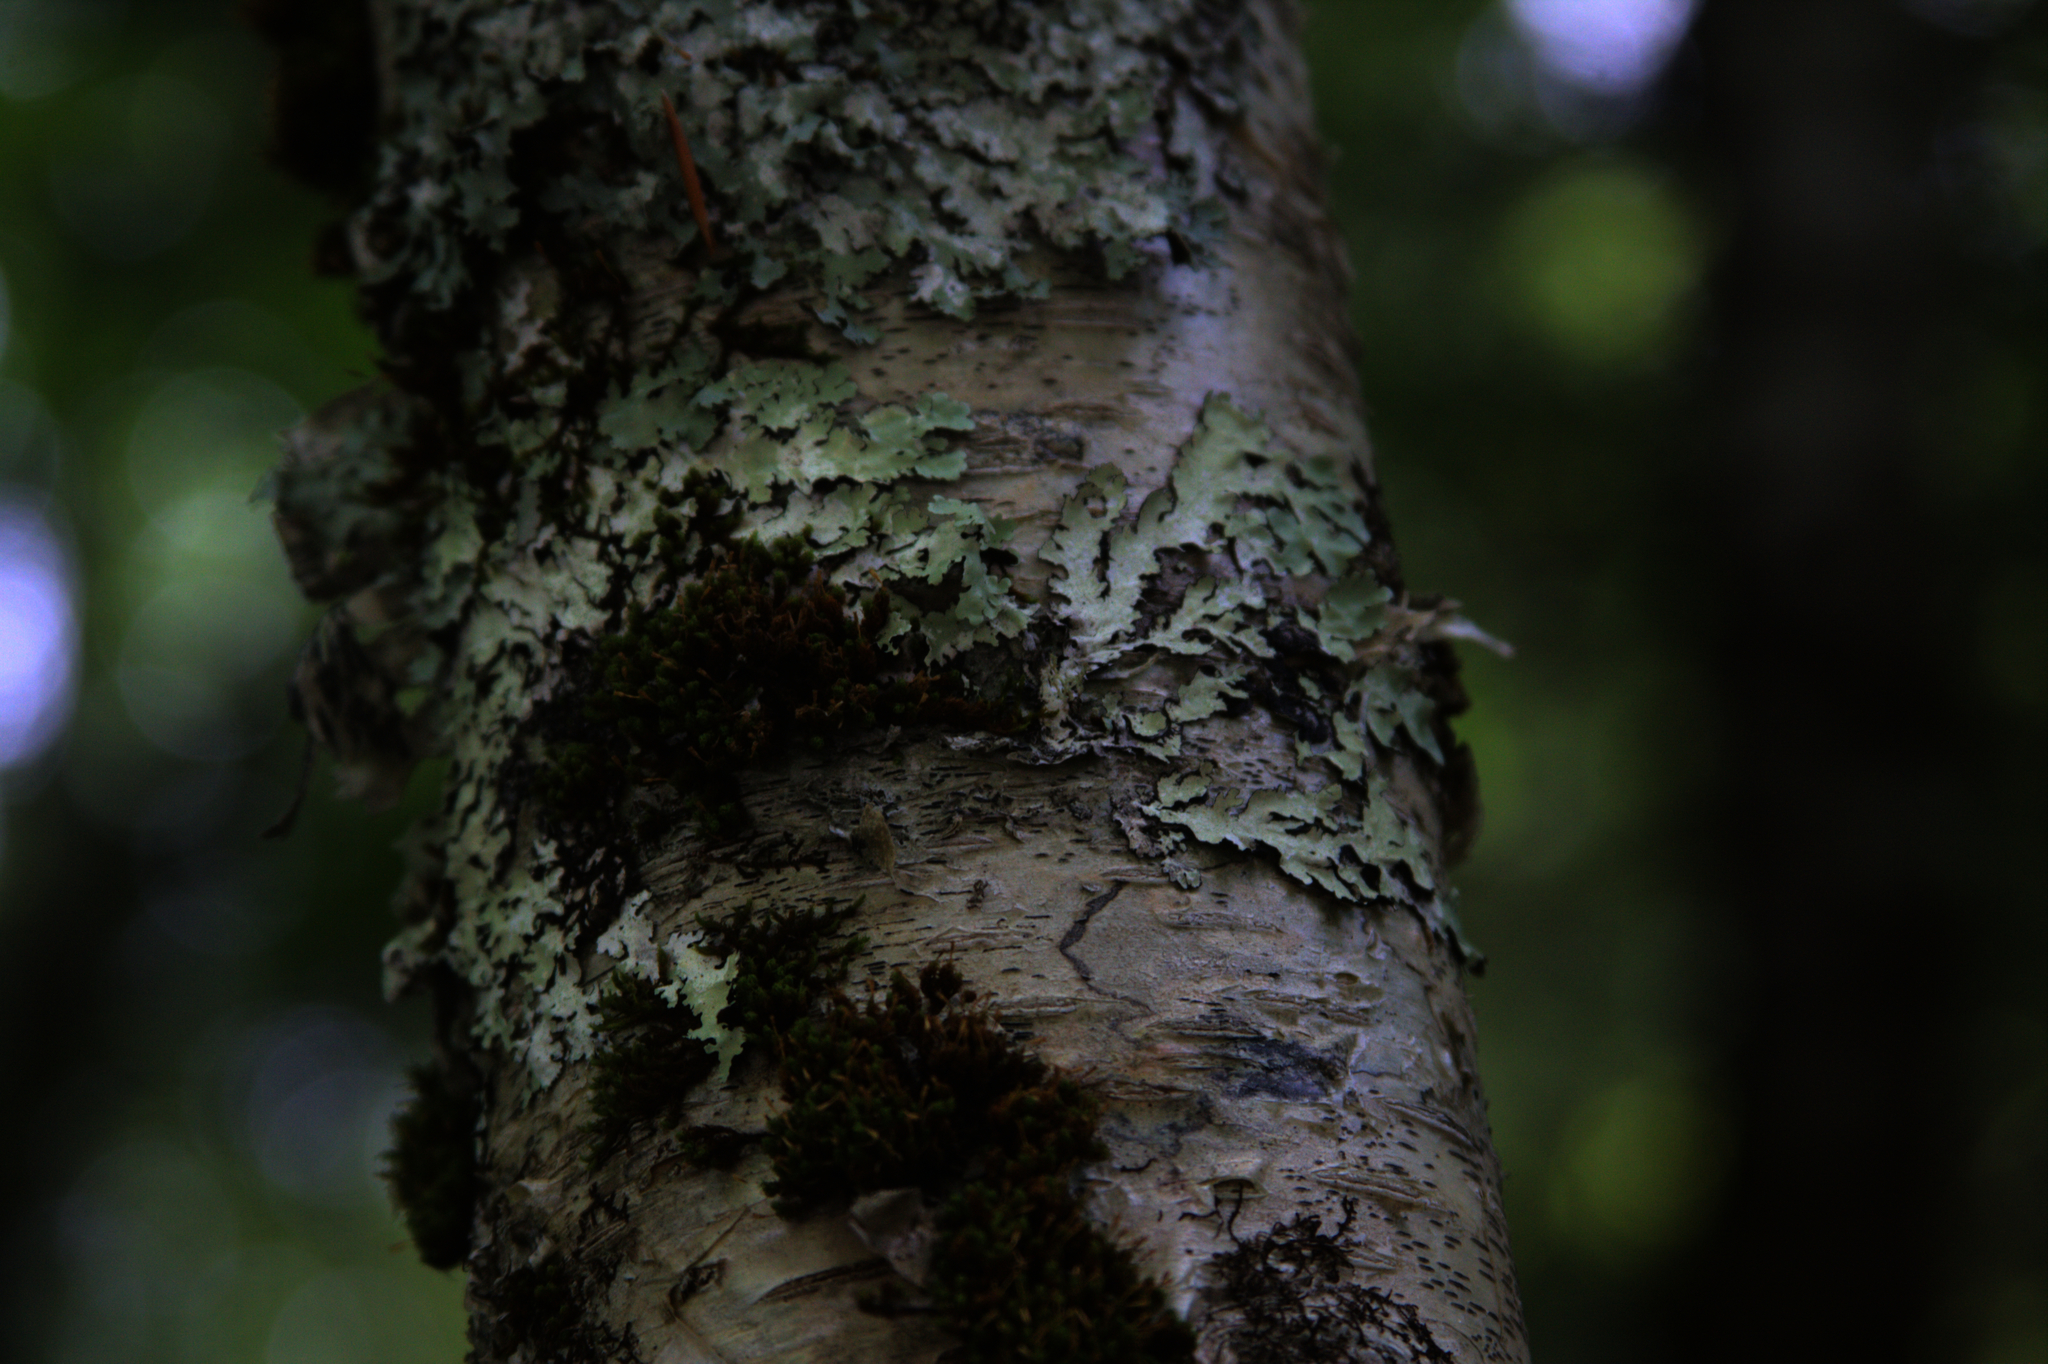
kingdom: Plantae
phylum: Bryophyta
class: Bryopsida
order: Orthotrichales
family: Orthotrichaceae
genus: Ulota
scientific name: Ulota crispa
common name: Crisped pincushion moss
